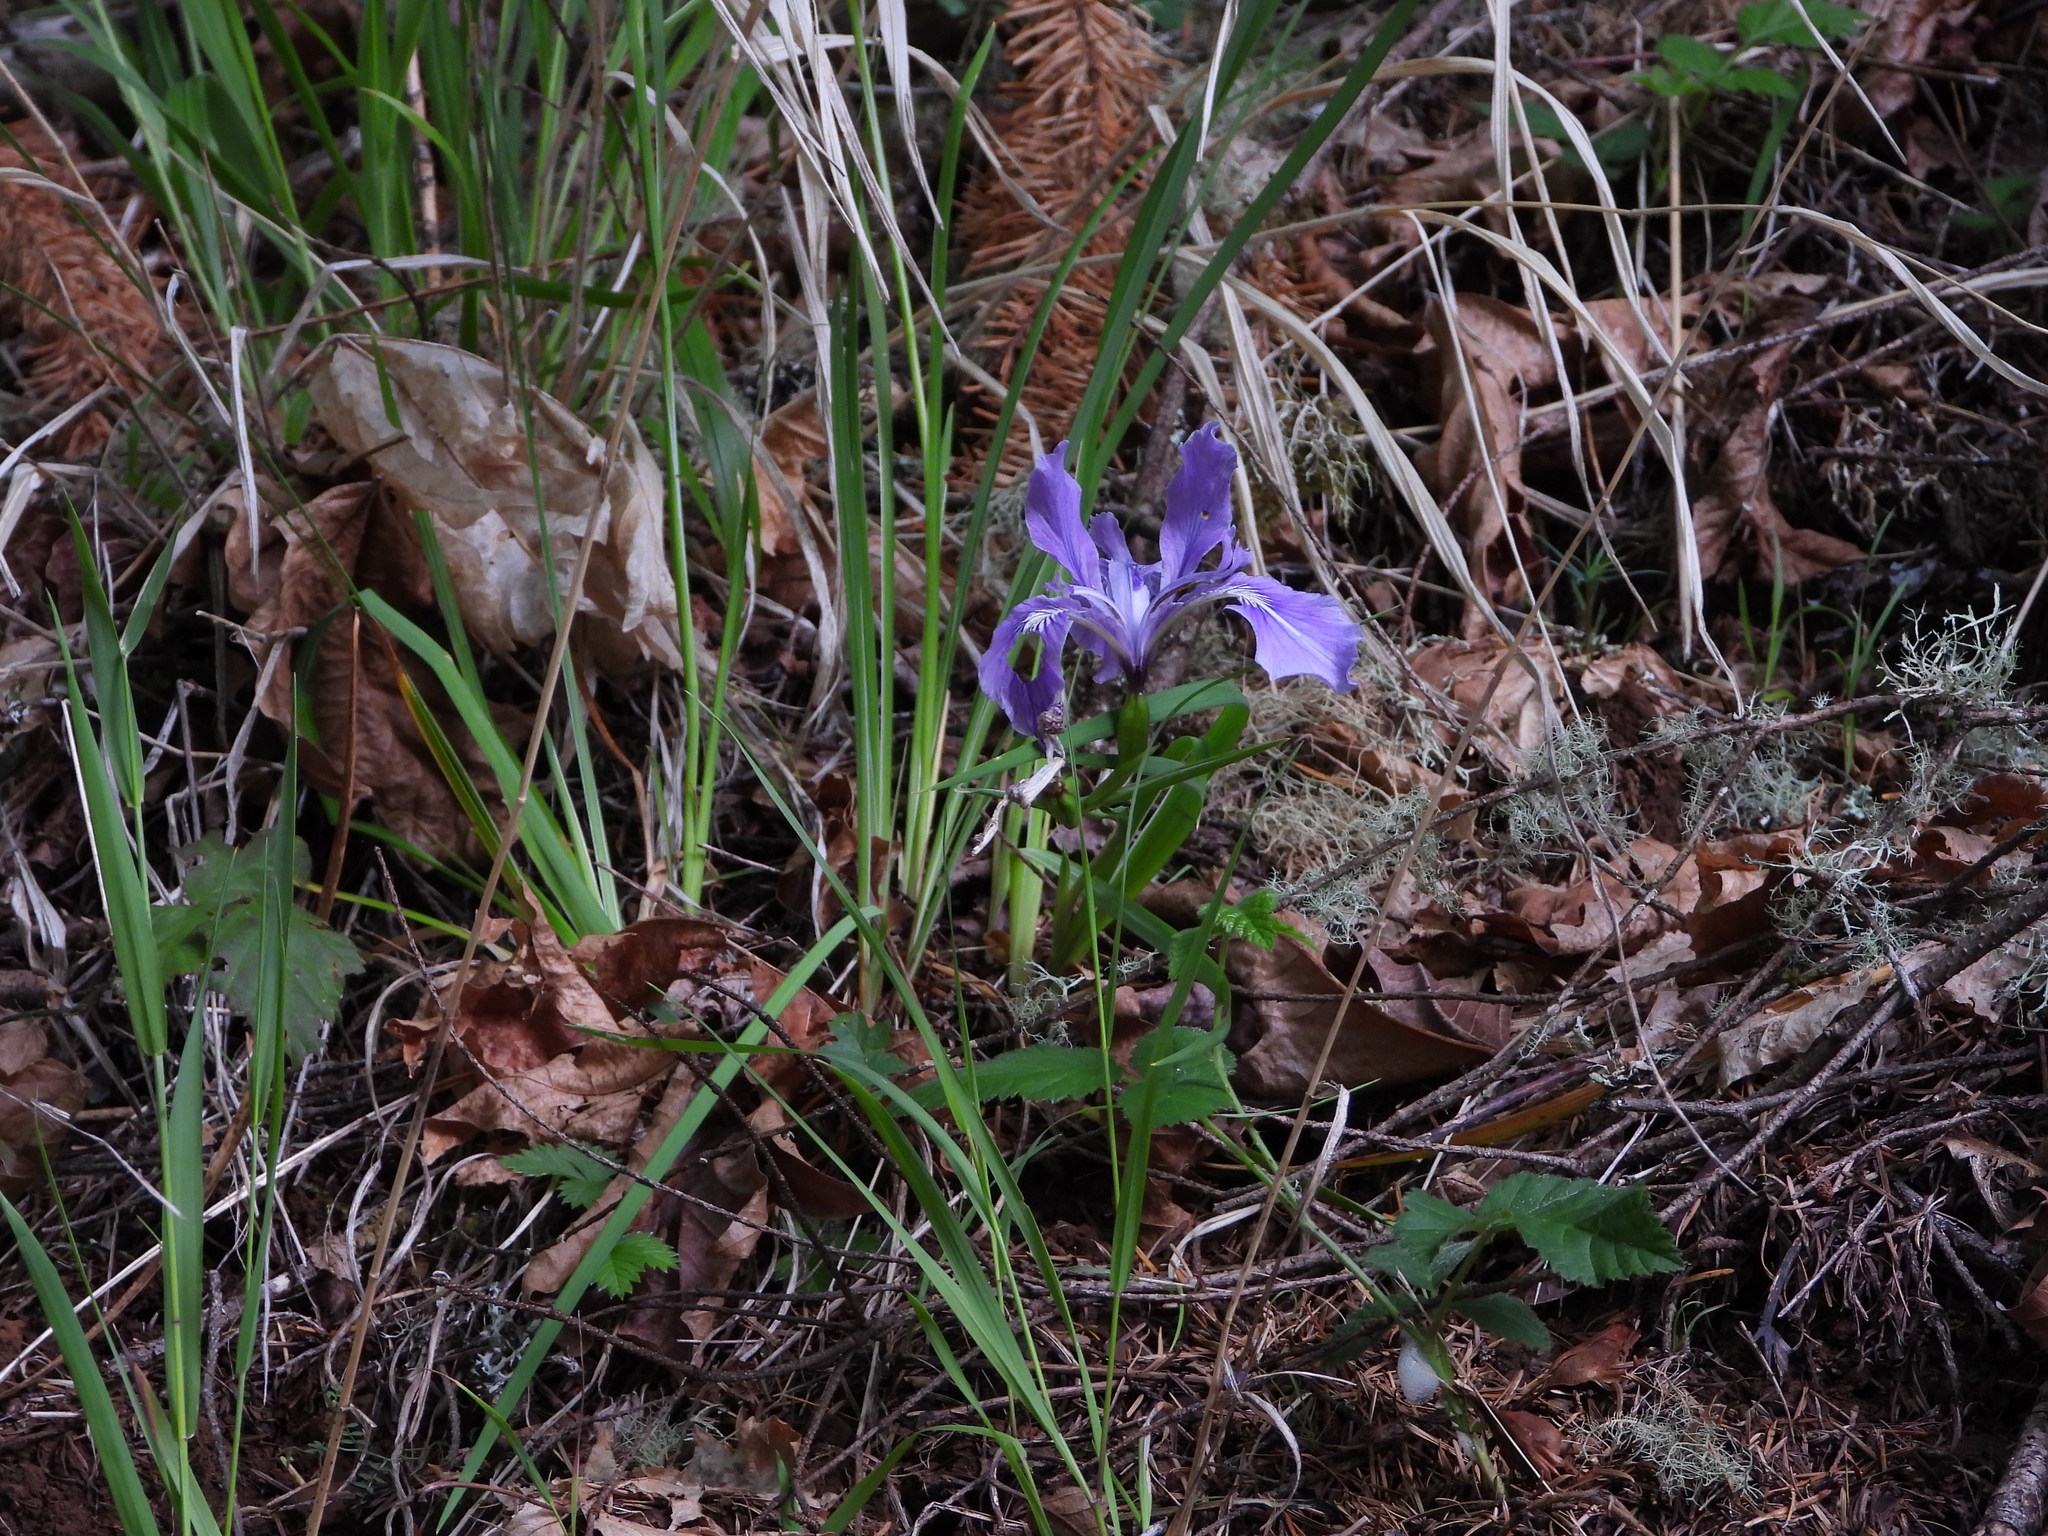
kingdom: Plantae
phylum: Tracheophyta
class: Liliopsida
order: Asparagales
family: Iridaceae
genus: Iris
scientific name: Iris tenax
